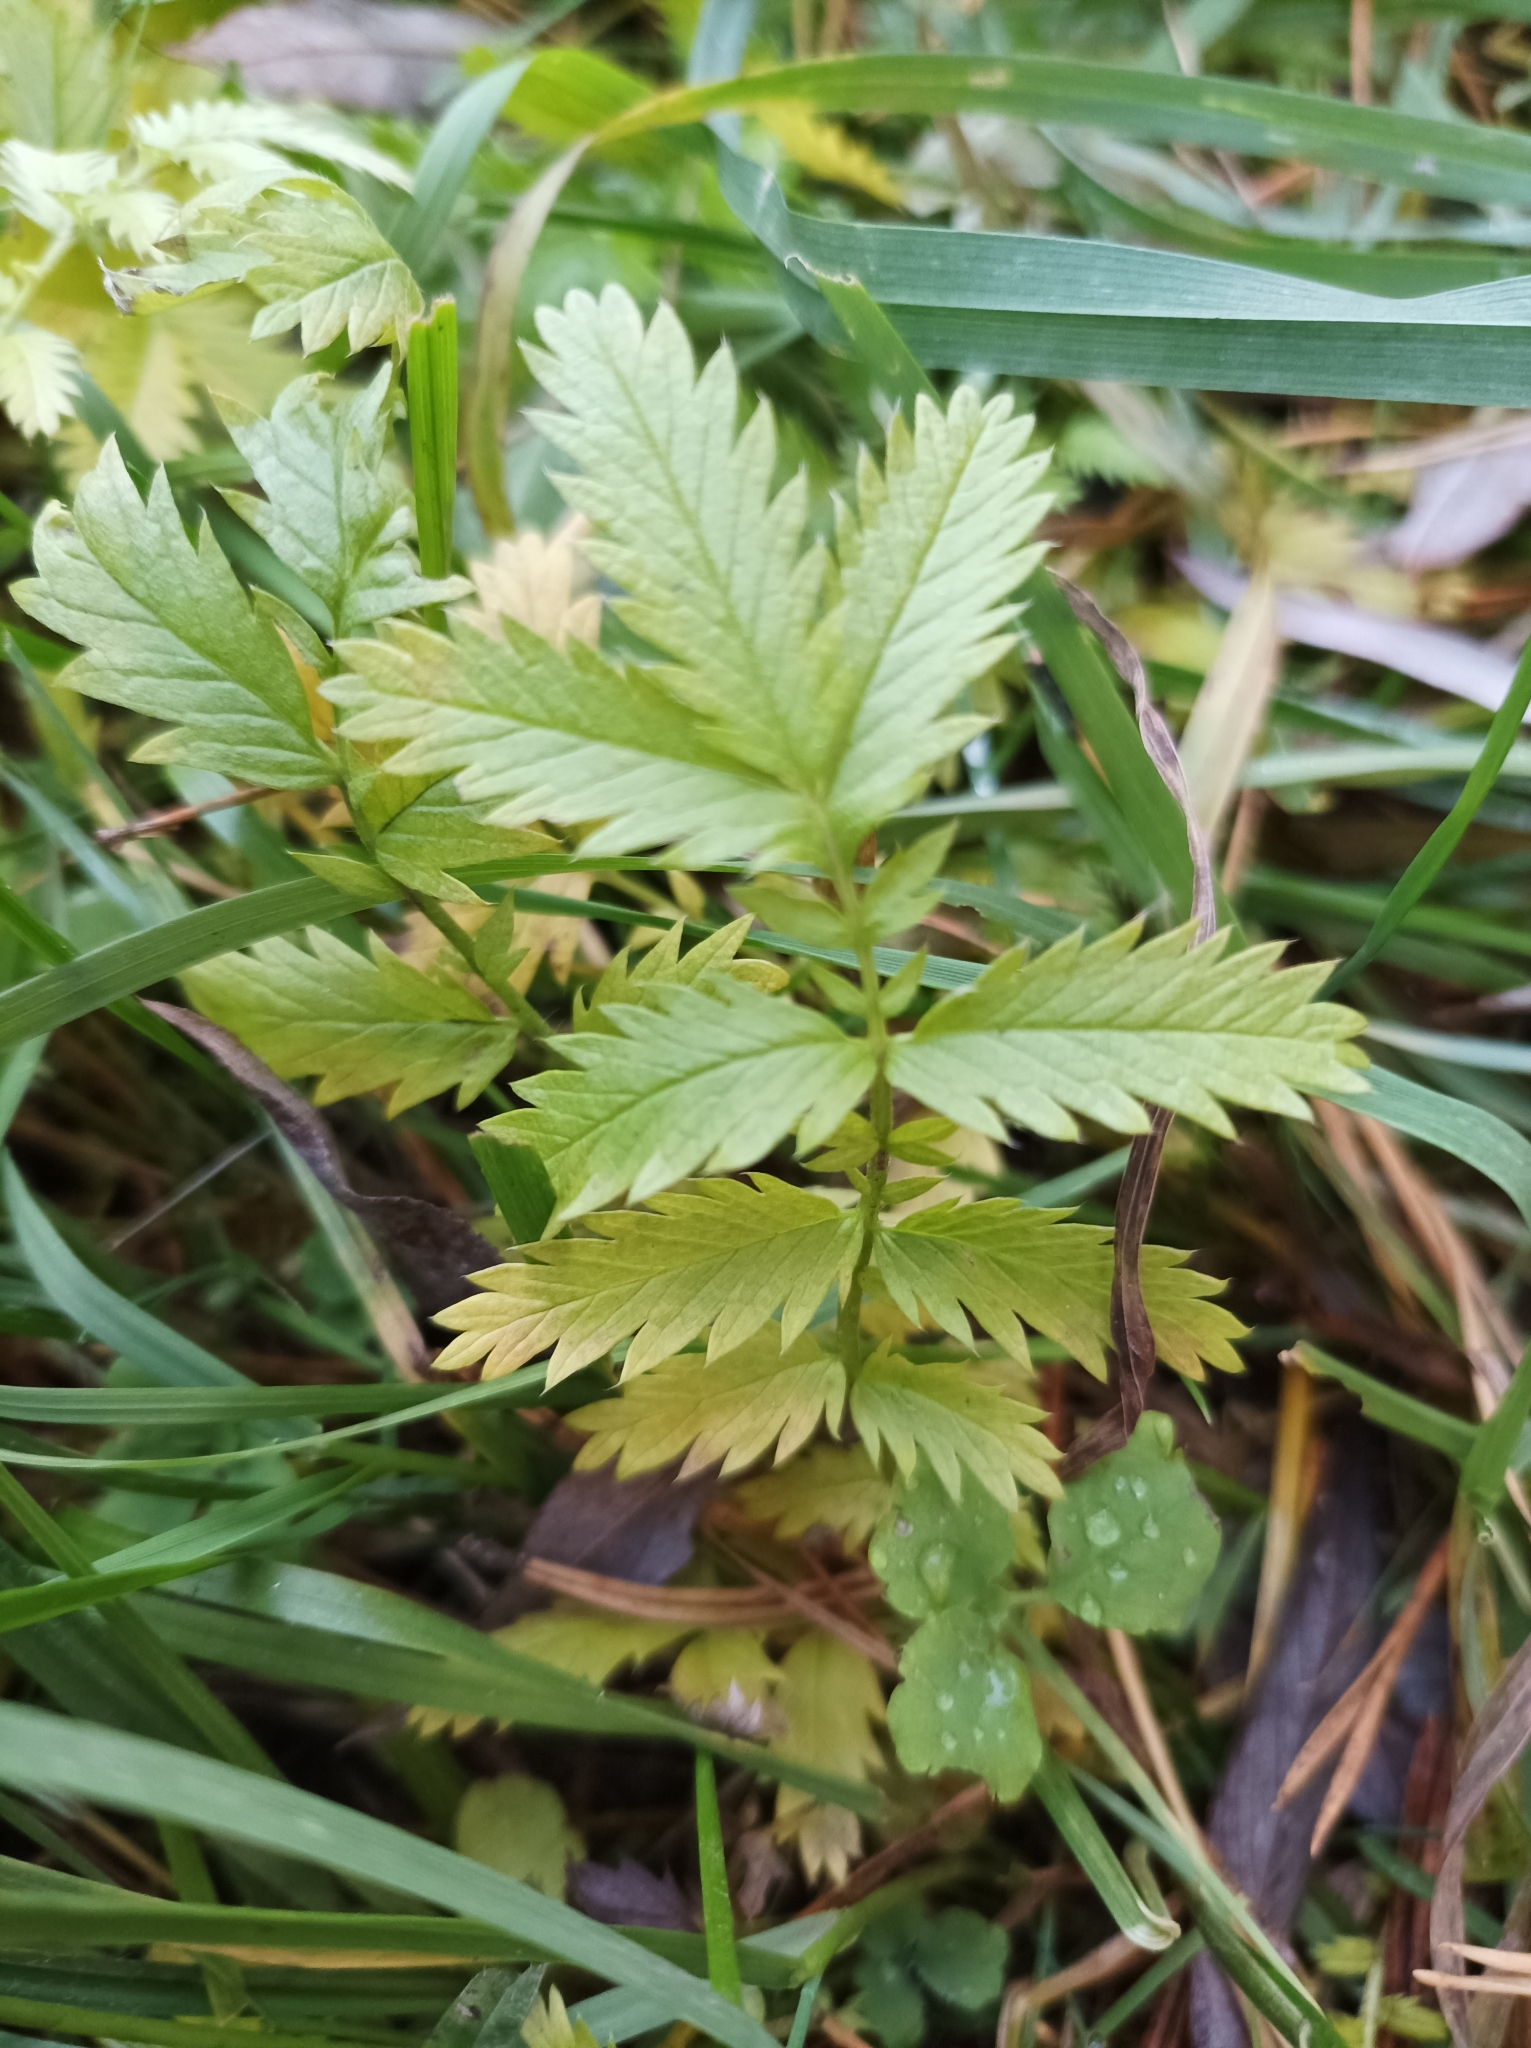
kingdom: Plantae
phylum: Tracheophyta
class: Magnoliopsida
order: Rosales
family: Rosaceae
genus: Argentina
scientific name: Argentina anserina
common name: Common silverweed
